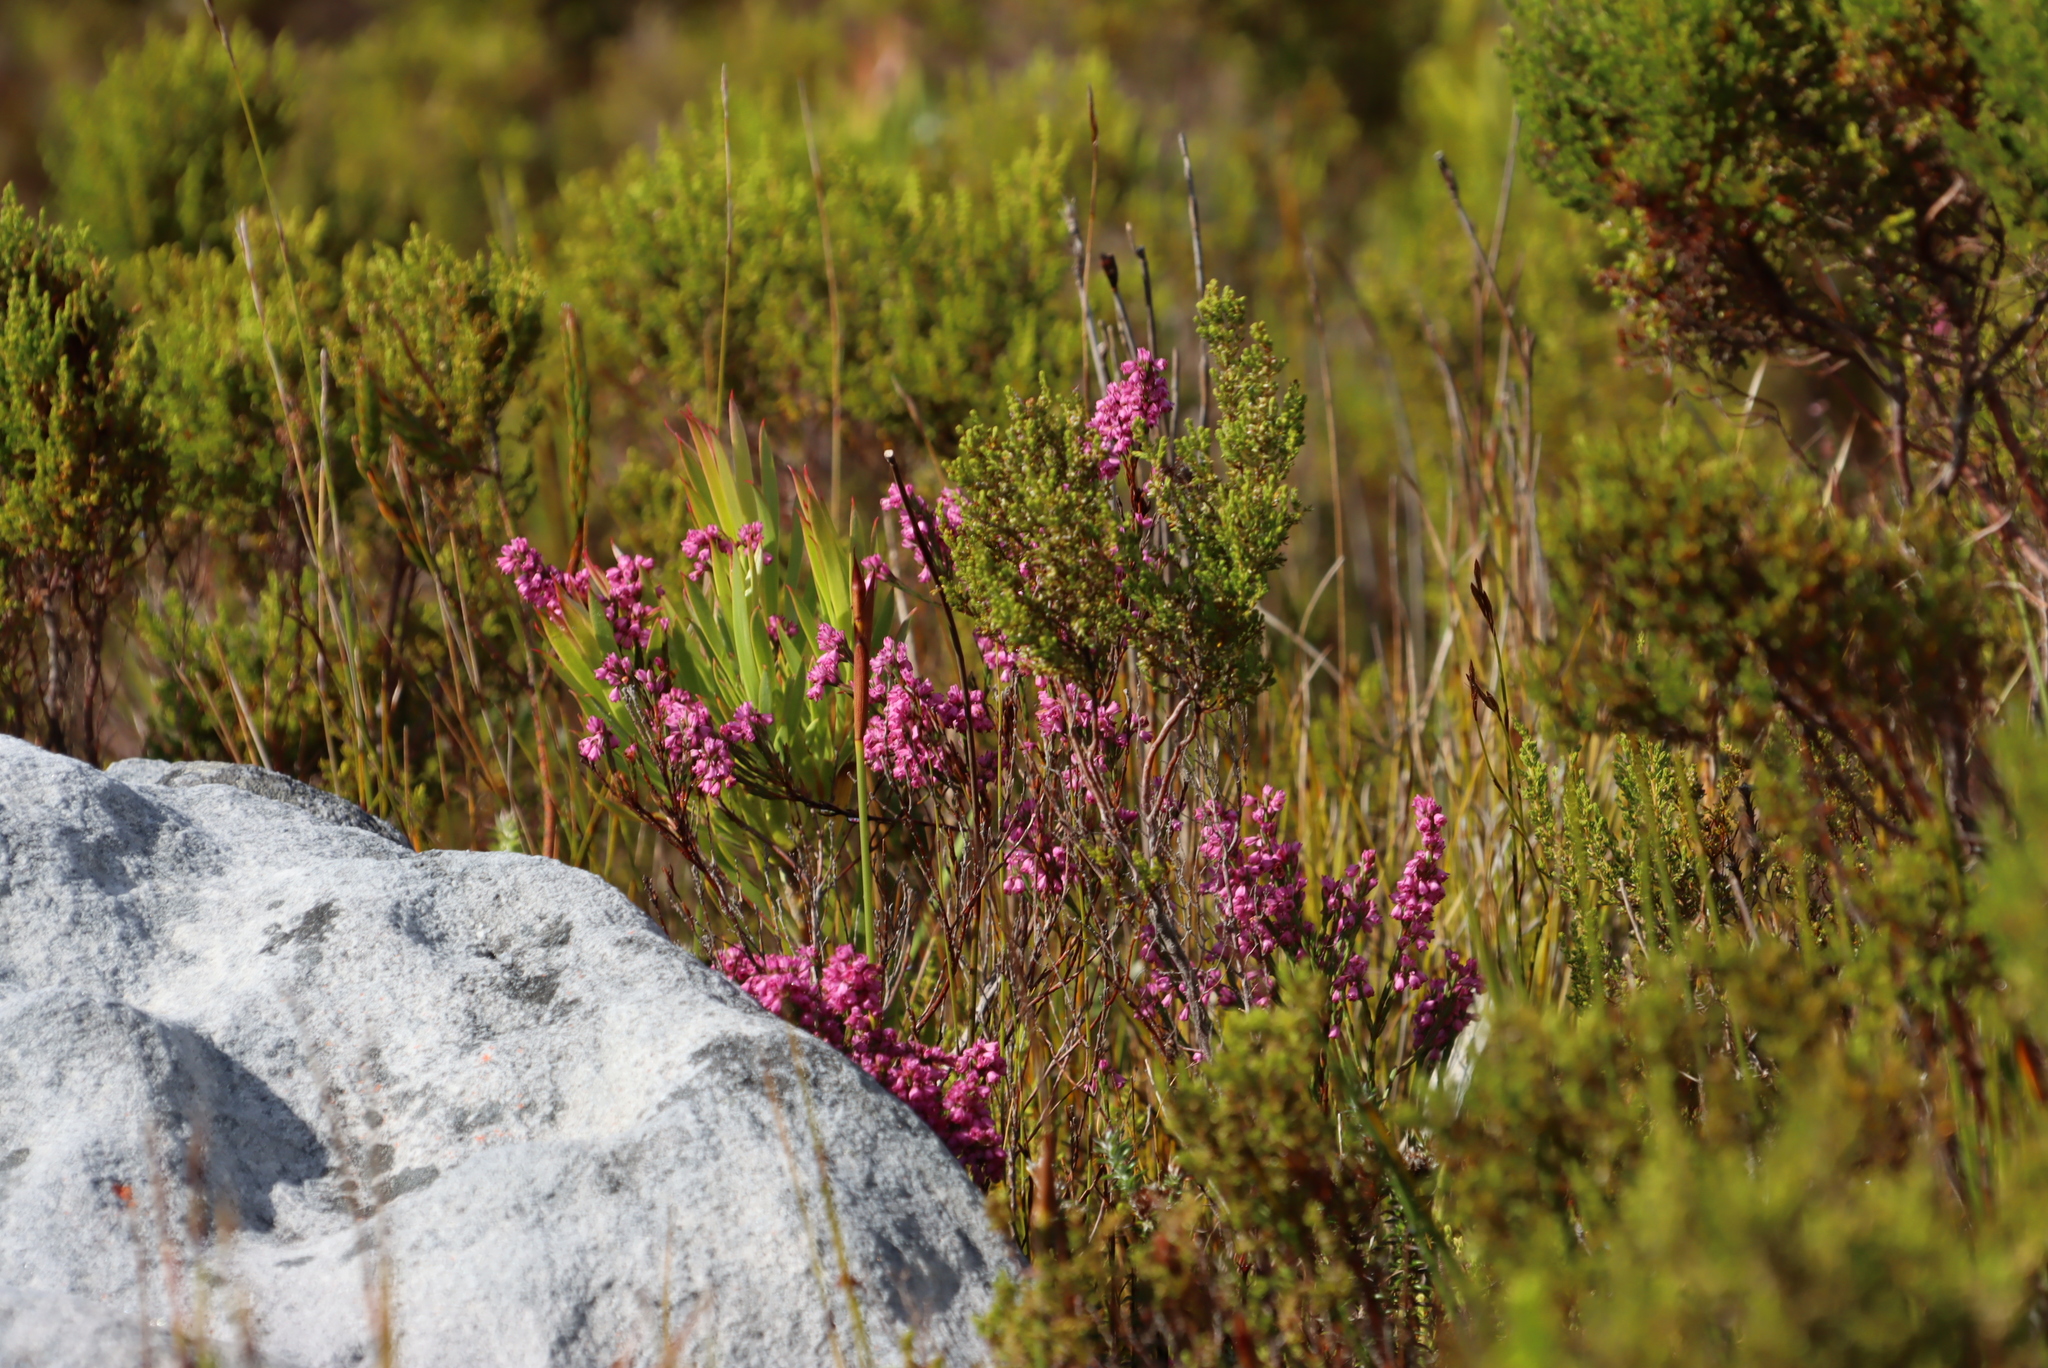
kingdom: Plantae
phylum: Tracheophyta
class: Magnoliopsida
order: Ericales
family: Ericaceae
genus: Erica
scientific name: Erica corifolia
